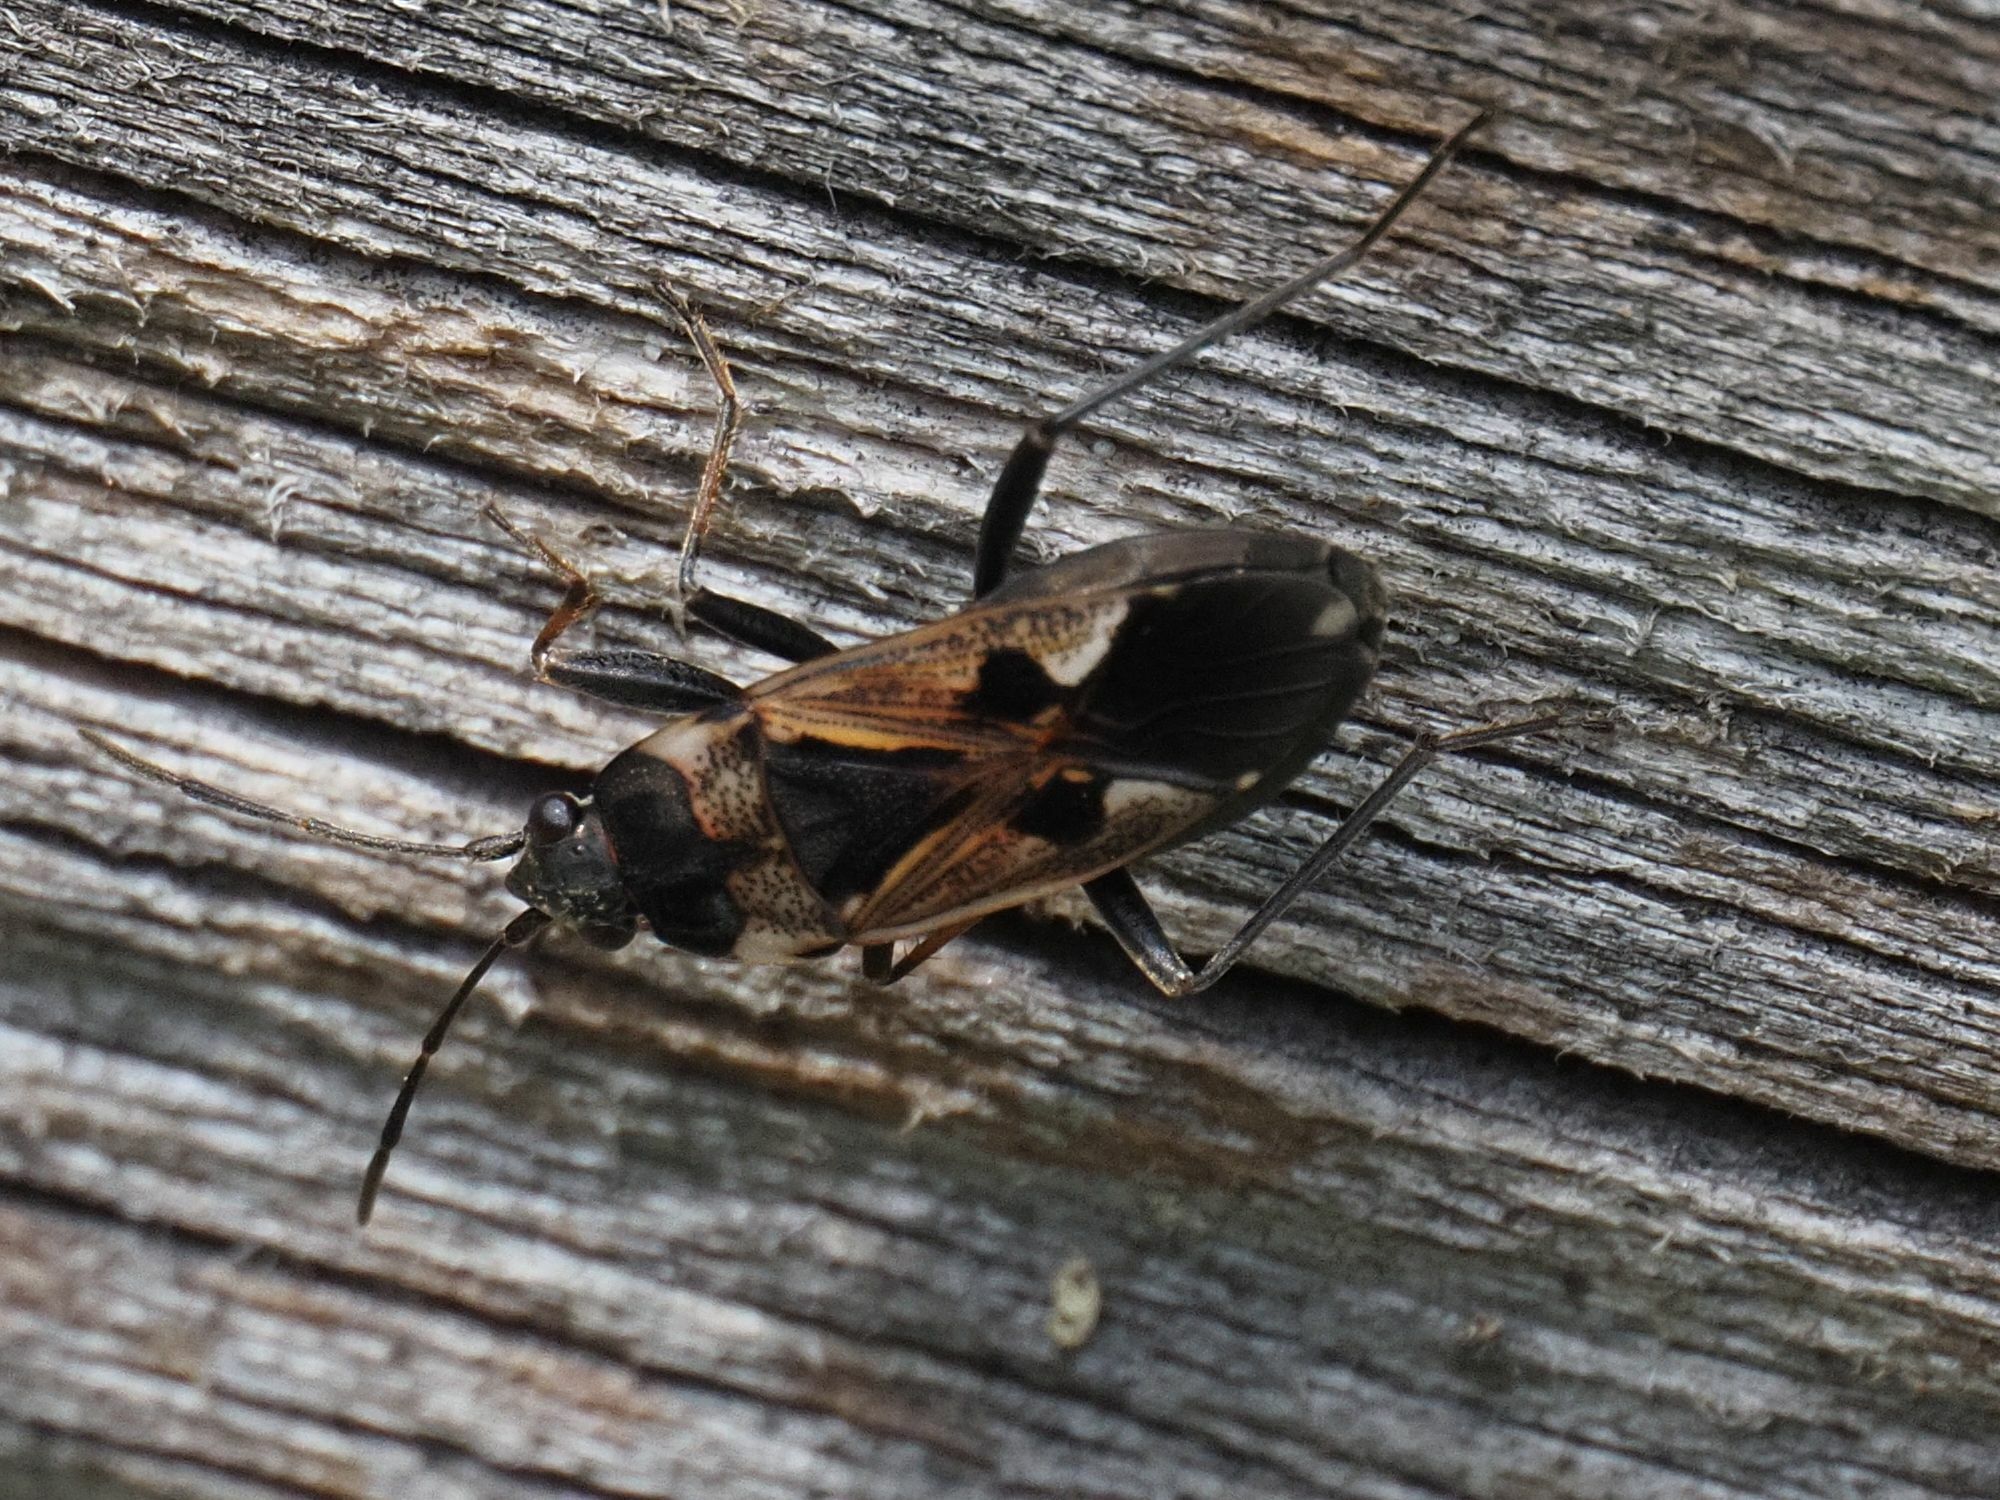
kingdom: Animalia
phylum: Arthropoda
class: Insecta
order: Hemiptera
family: Rhyparochromidae
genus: Rhyparochromus
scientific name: Rhyparochromus vulgaris
